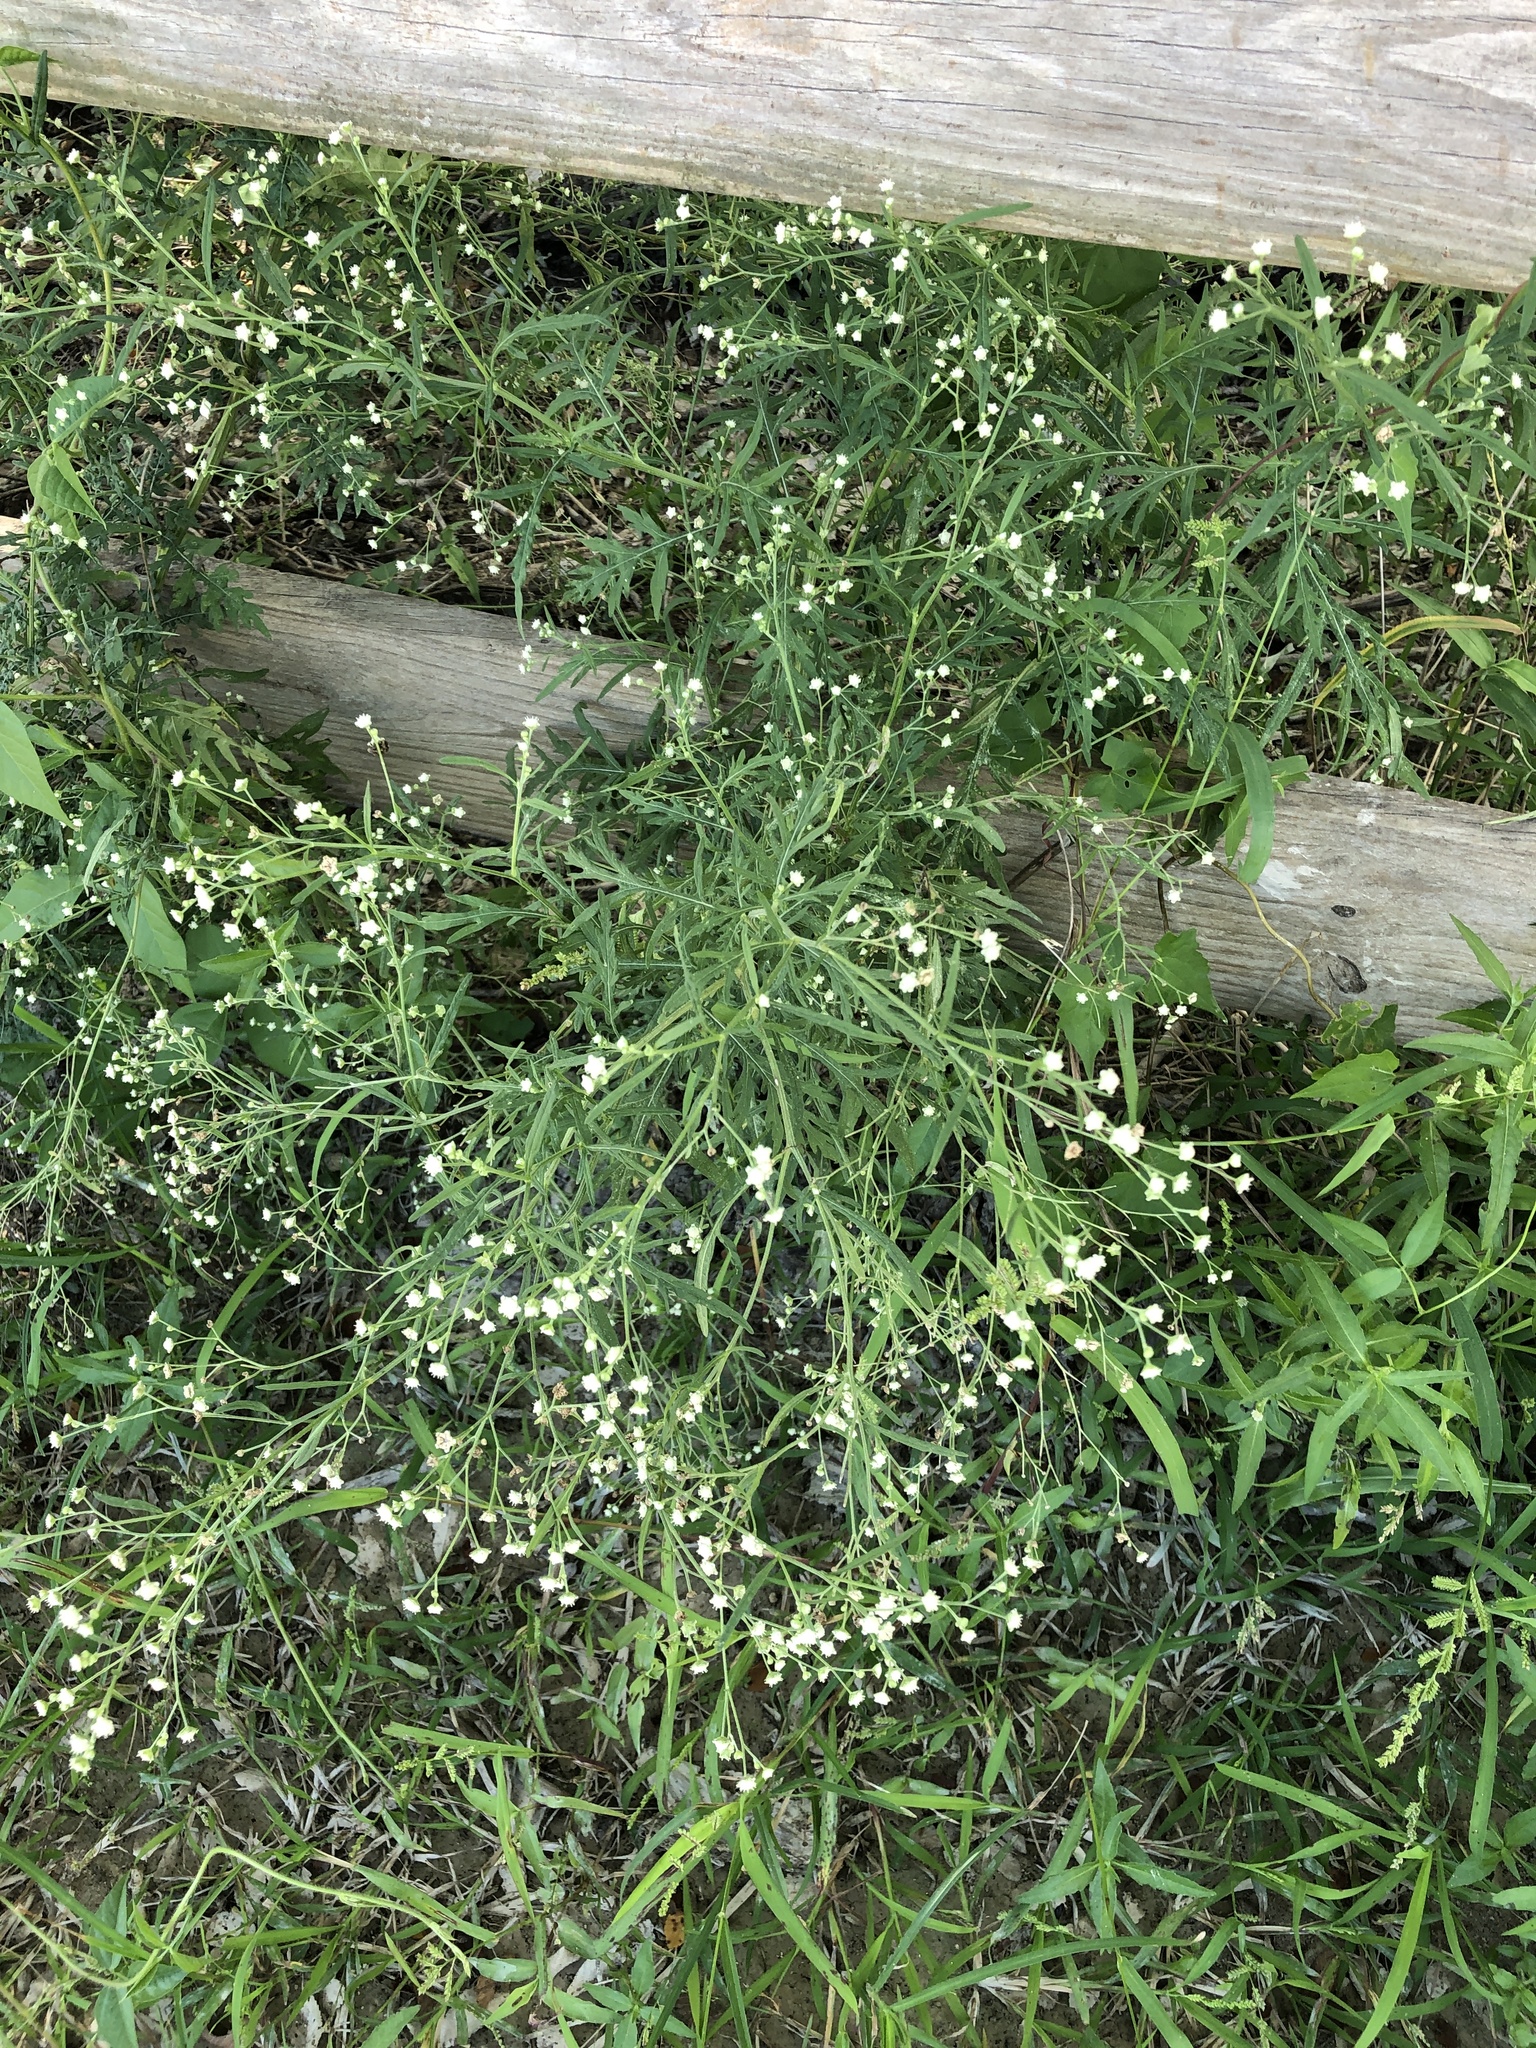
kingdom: Plantae
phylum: Tracheophyta
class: Magnoliopsida
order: Asterales
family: Asteraceae
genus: Parthenium
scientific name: Parthenium hysterophorus
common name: Santa maria feverfew
